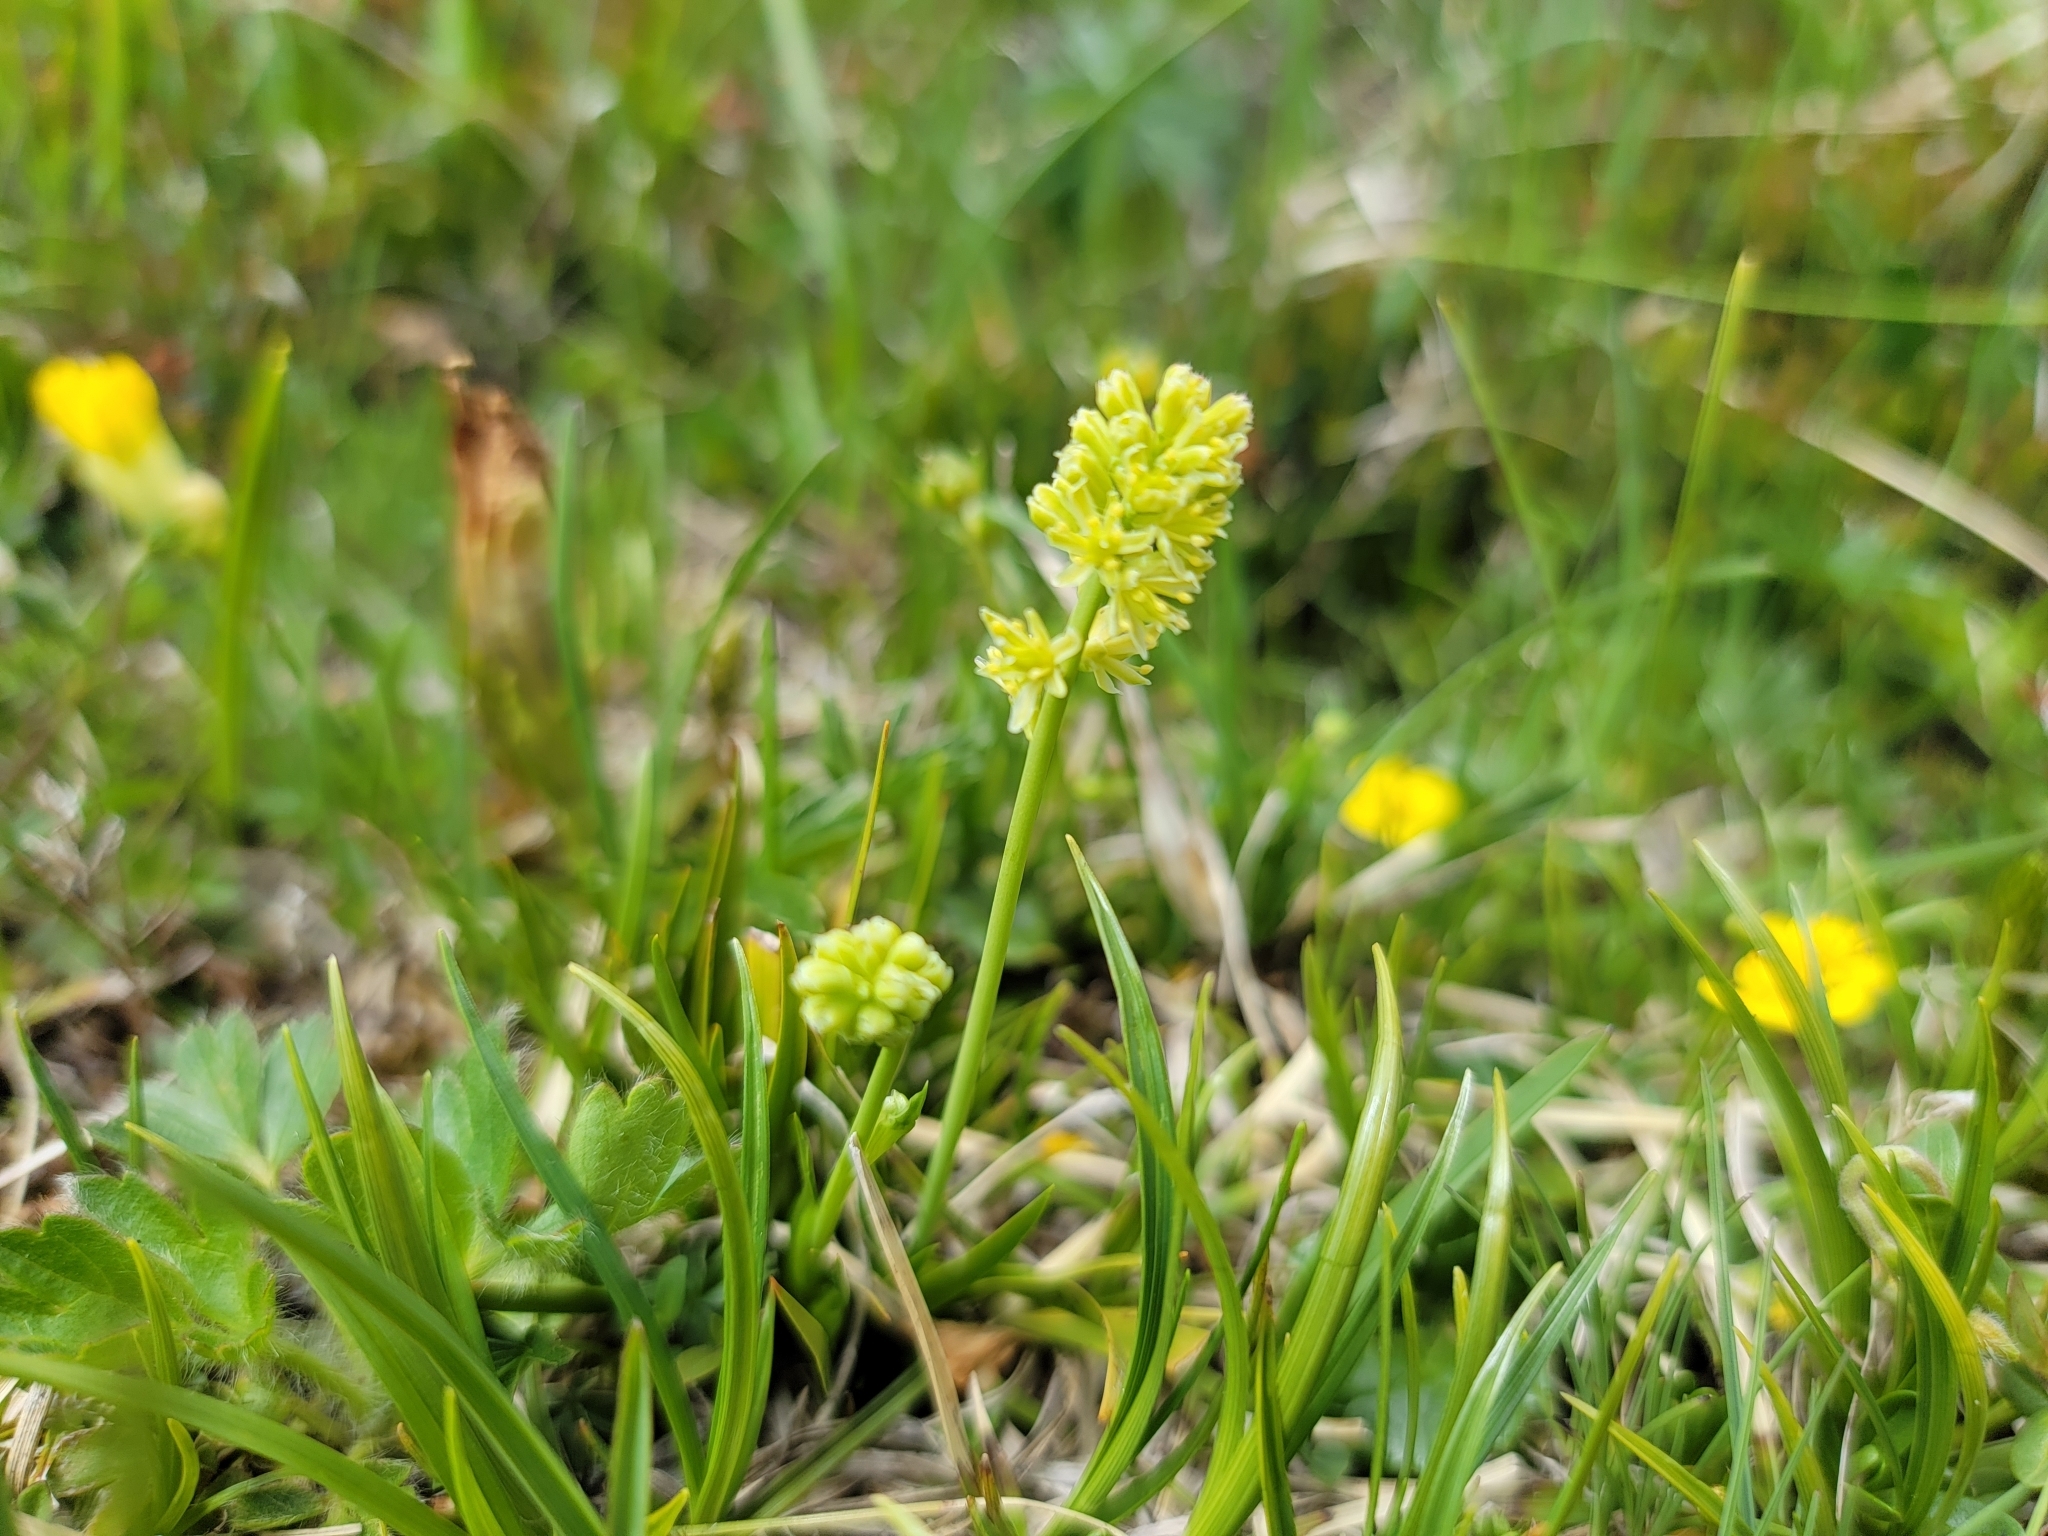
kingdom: Plantae
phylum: Tracheophyta
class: Liliopsida
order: Alismatales
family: Tofieldiaceae
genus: Tofieldia
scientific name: Tofieldia calyculata
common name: German-asphodel
